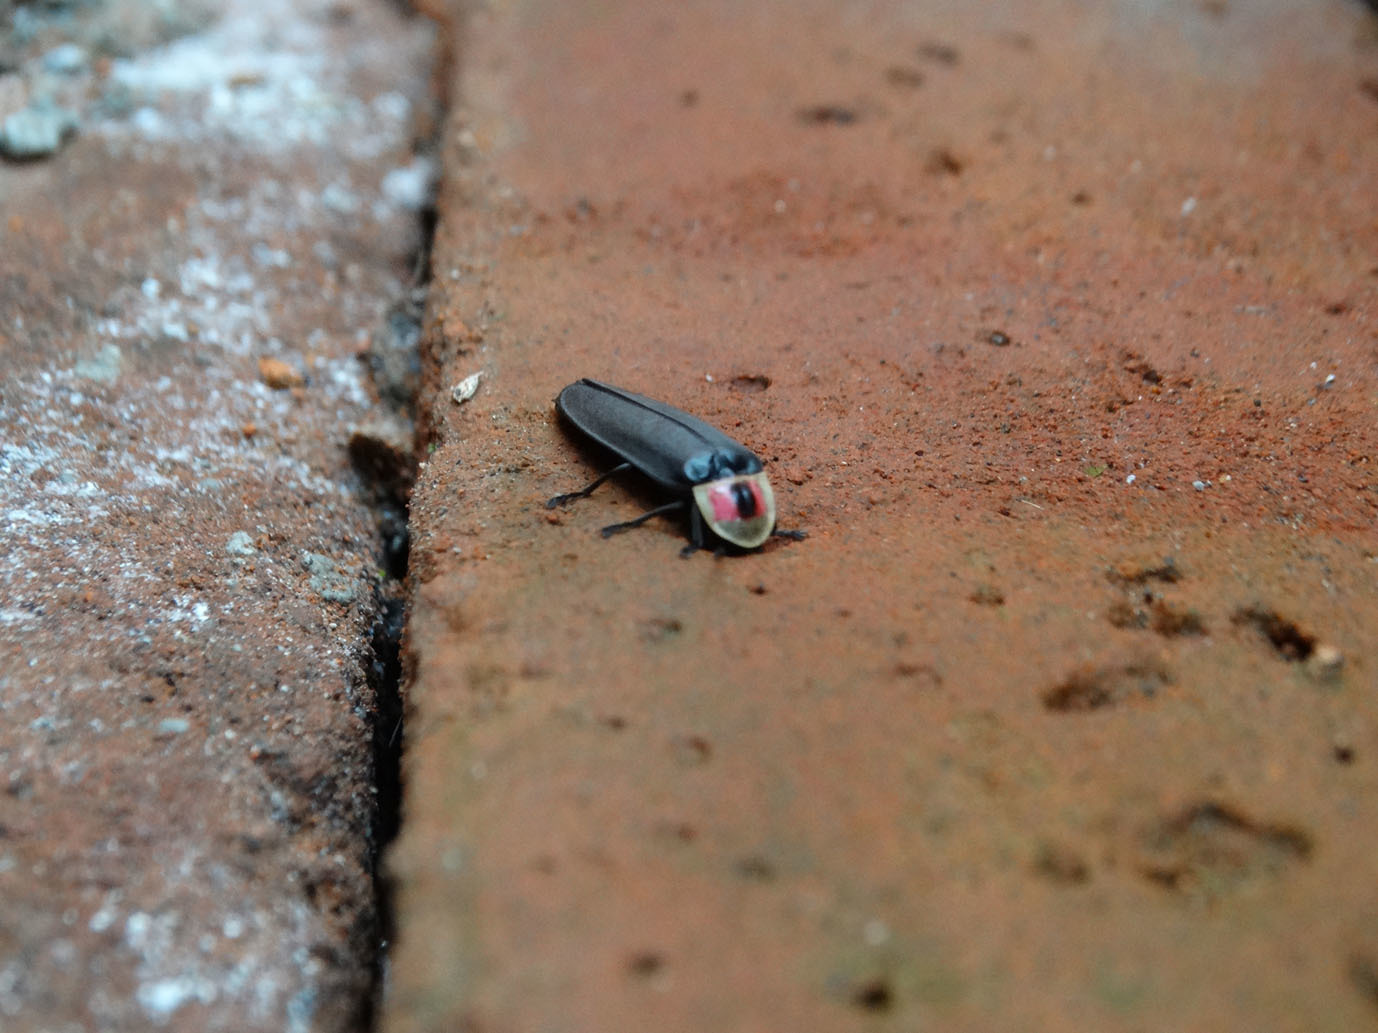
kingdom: Animalia
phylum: Arthropoda
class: Insecta
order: Coleoptera
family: Lampyridae
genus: Photinus
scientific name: Photinus extensus
